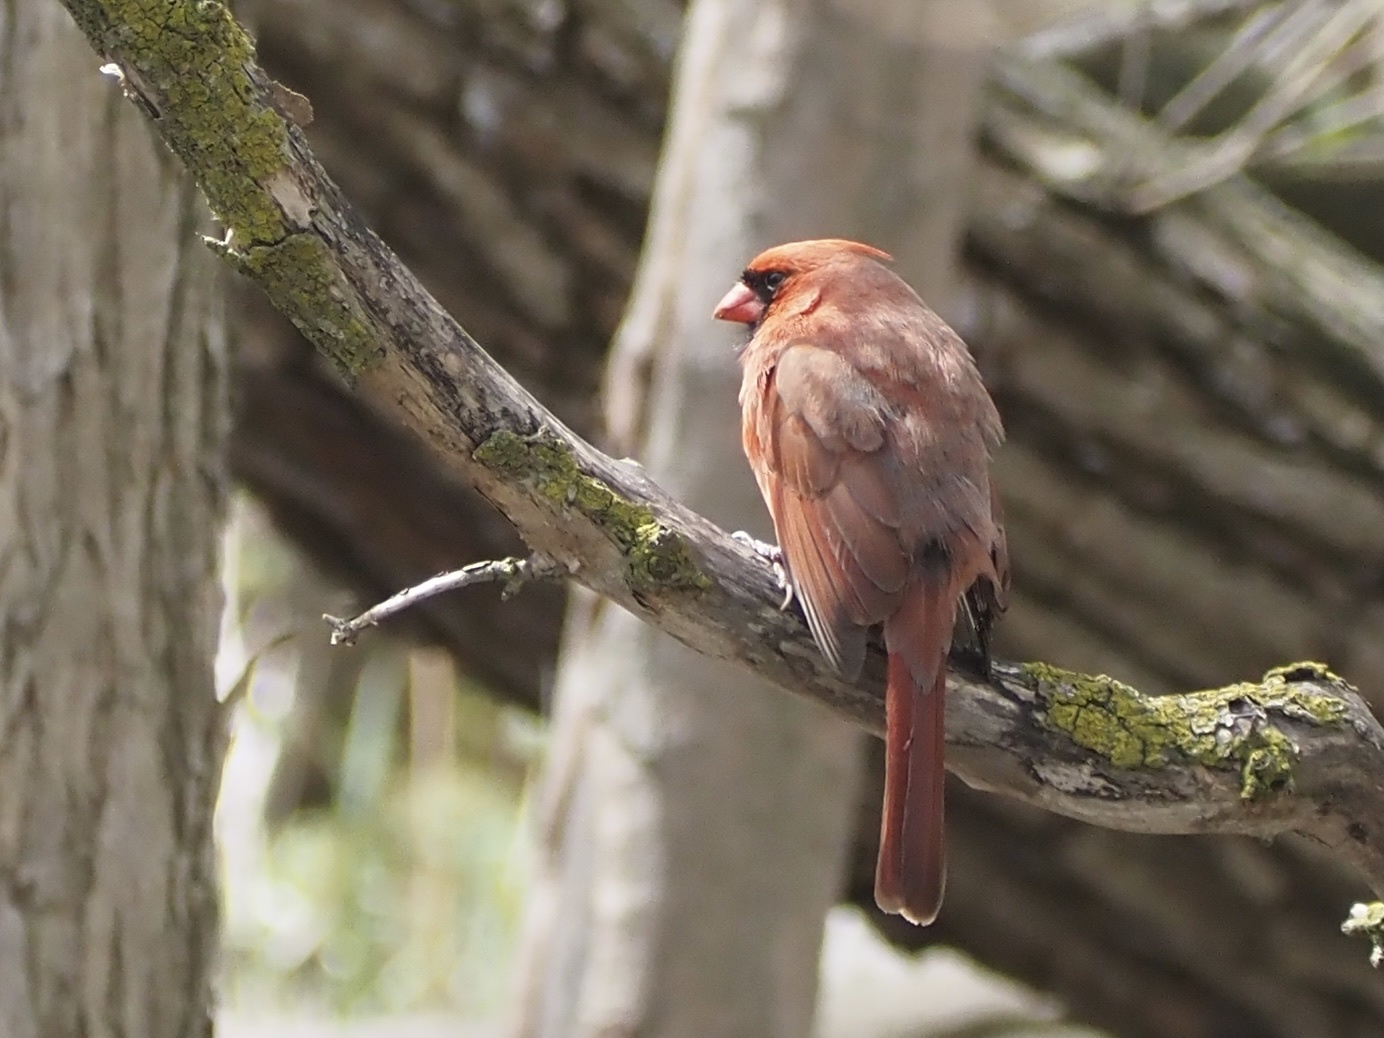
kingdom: Animalia
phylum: Chordata
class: Aves
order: Passeriformes
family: Cardinalidae
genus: Cardinalis
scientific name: Cardinalis cardinalis
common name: Northern cardinal
